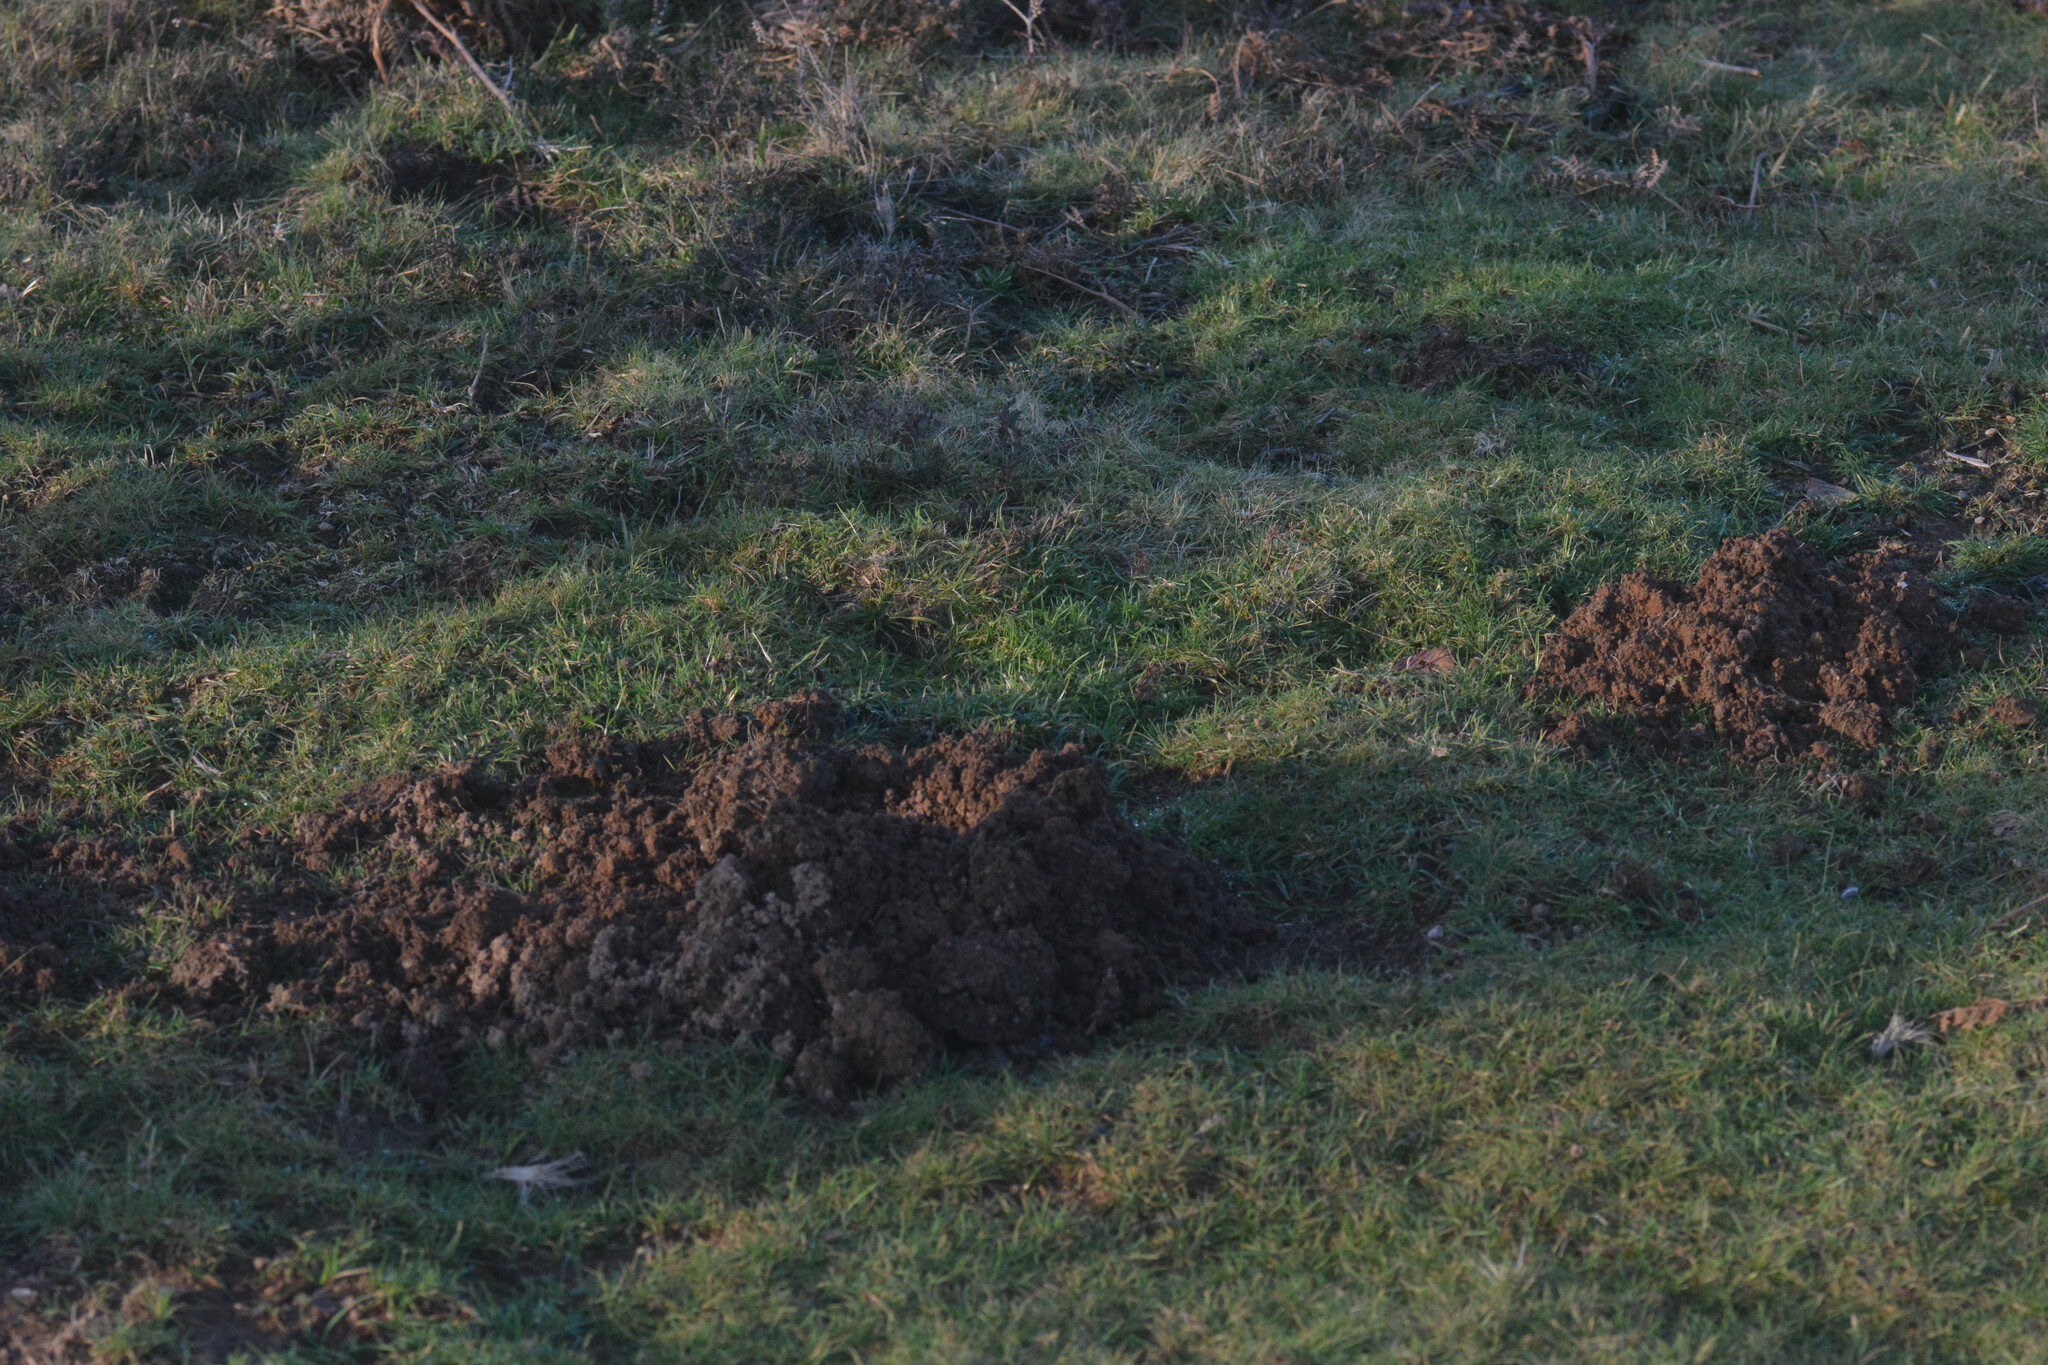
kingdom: Animalia
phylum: Chordata
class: Mammalia
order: Soricomorpha
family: Talpidae
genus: Talpa
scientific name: Talpa europaea
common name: European mole
